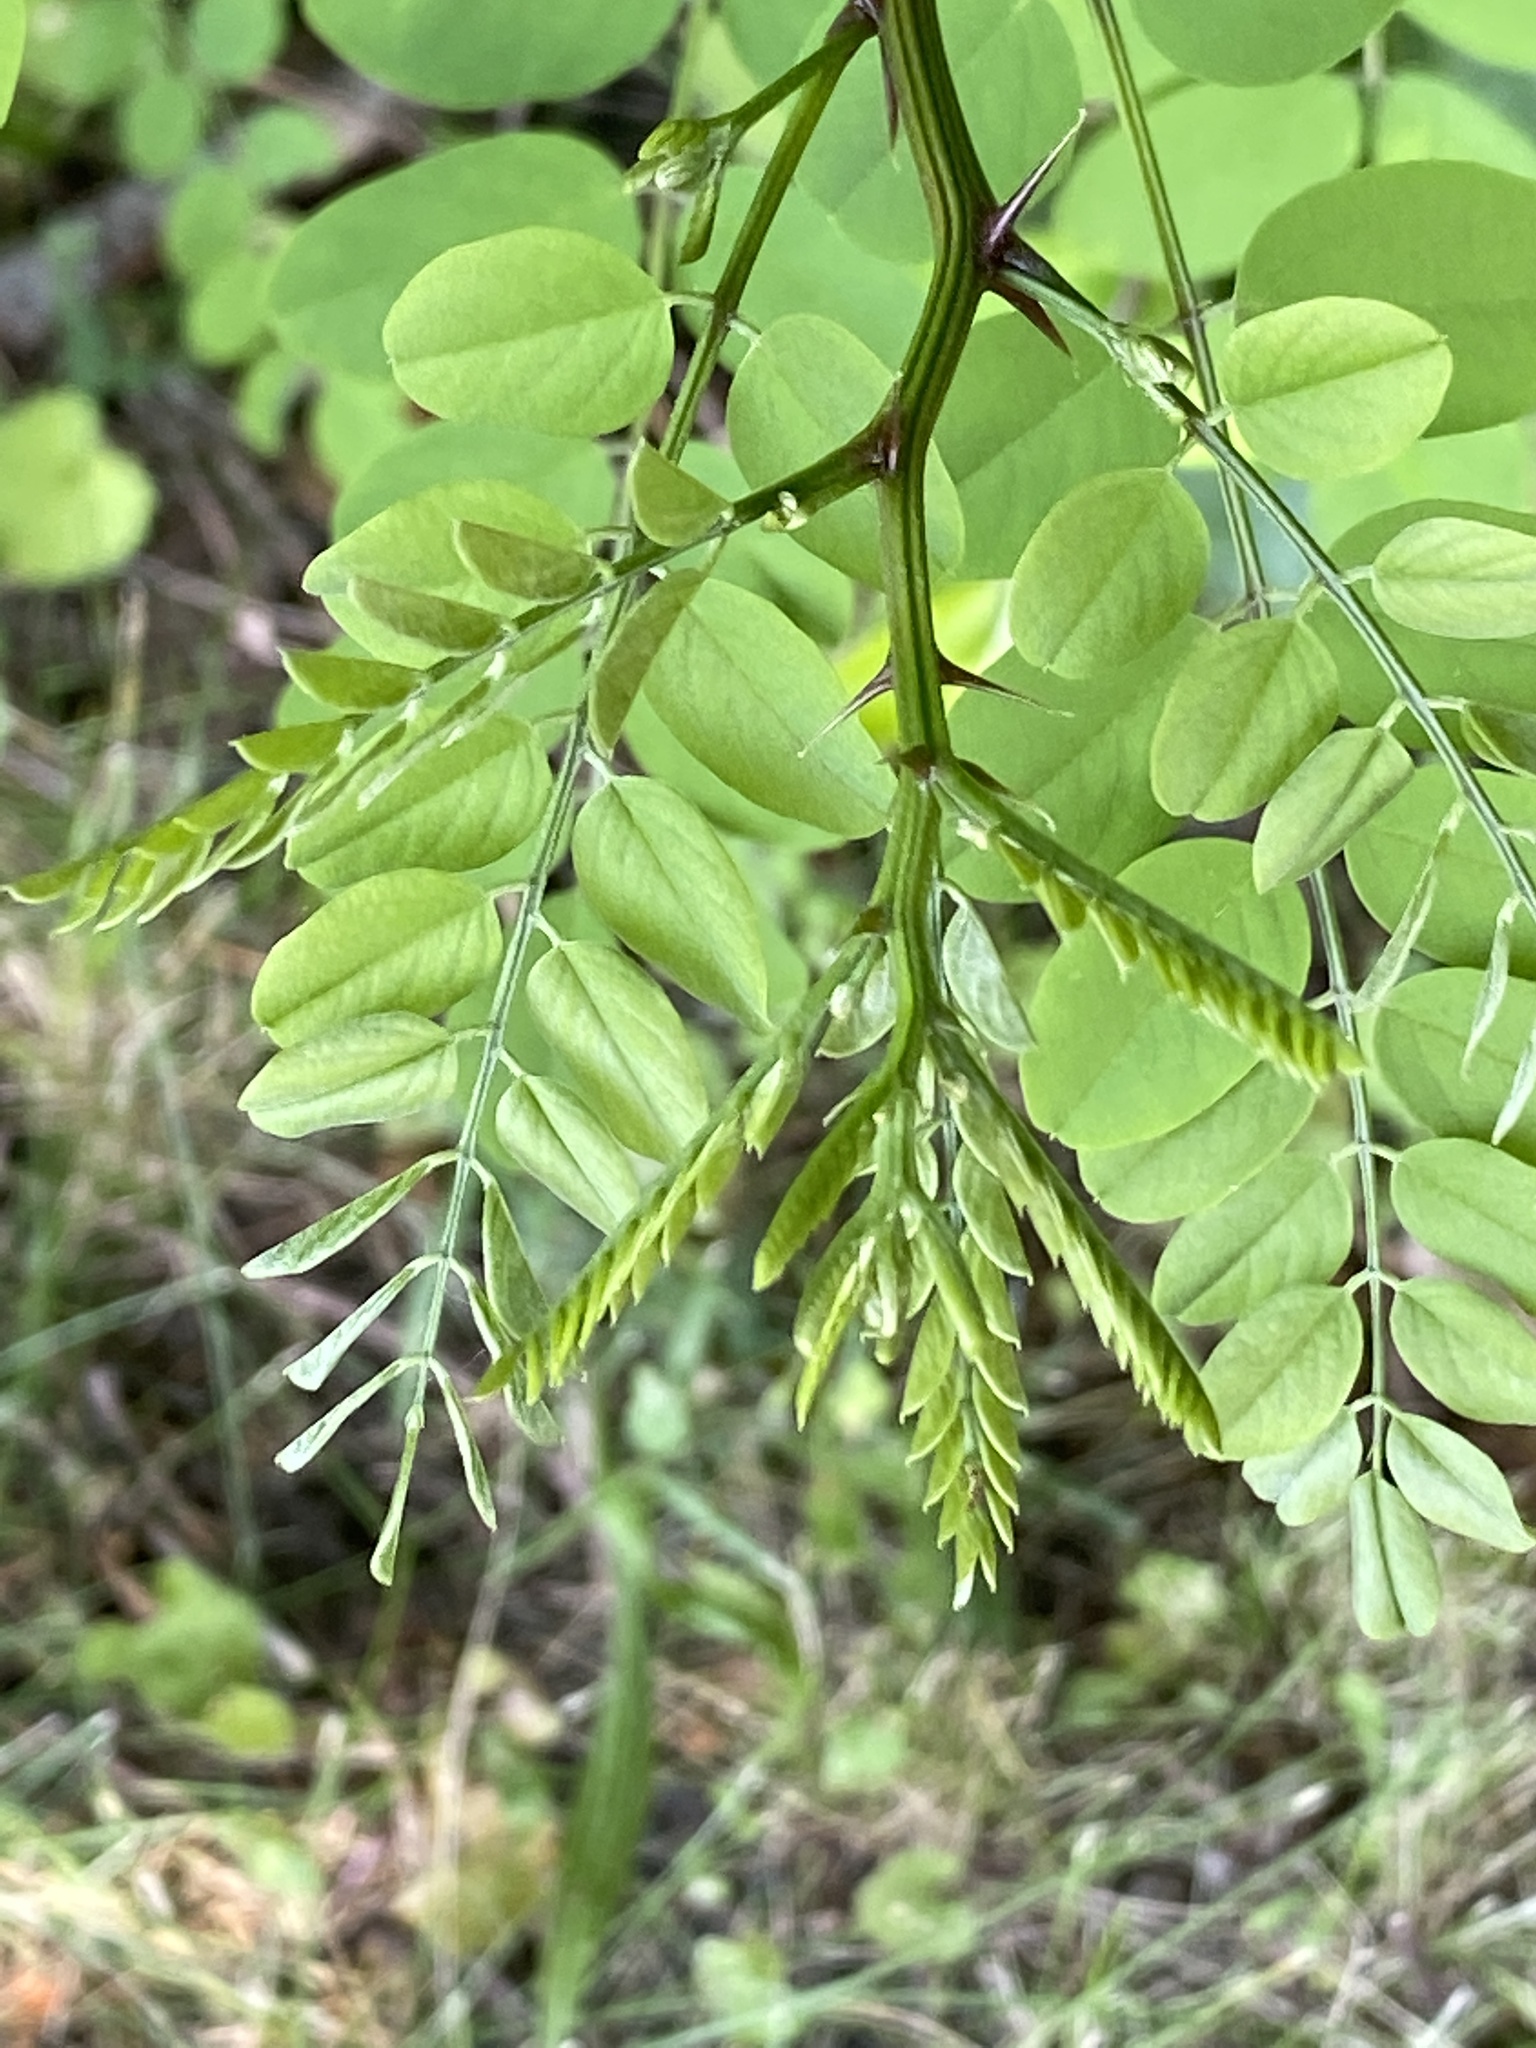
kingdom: Plantae
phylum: Tracheophyta
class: Magnoliopsida
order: Fabales
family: Fabaceae
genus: Robinia
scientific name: Robinia pseudoacacia
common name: Black locust
